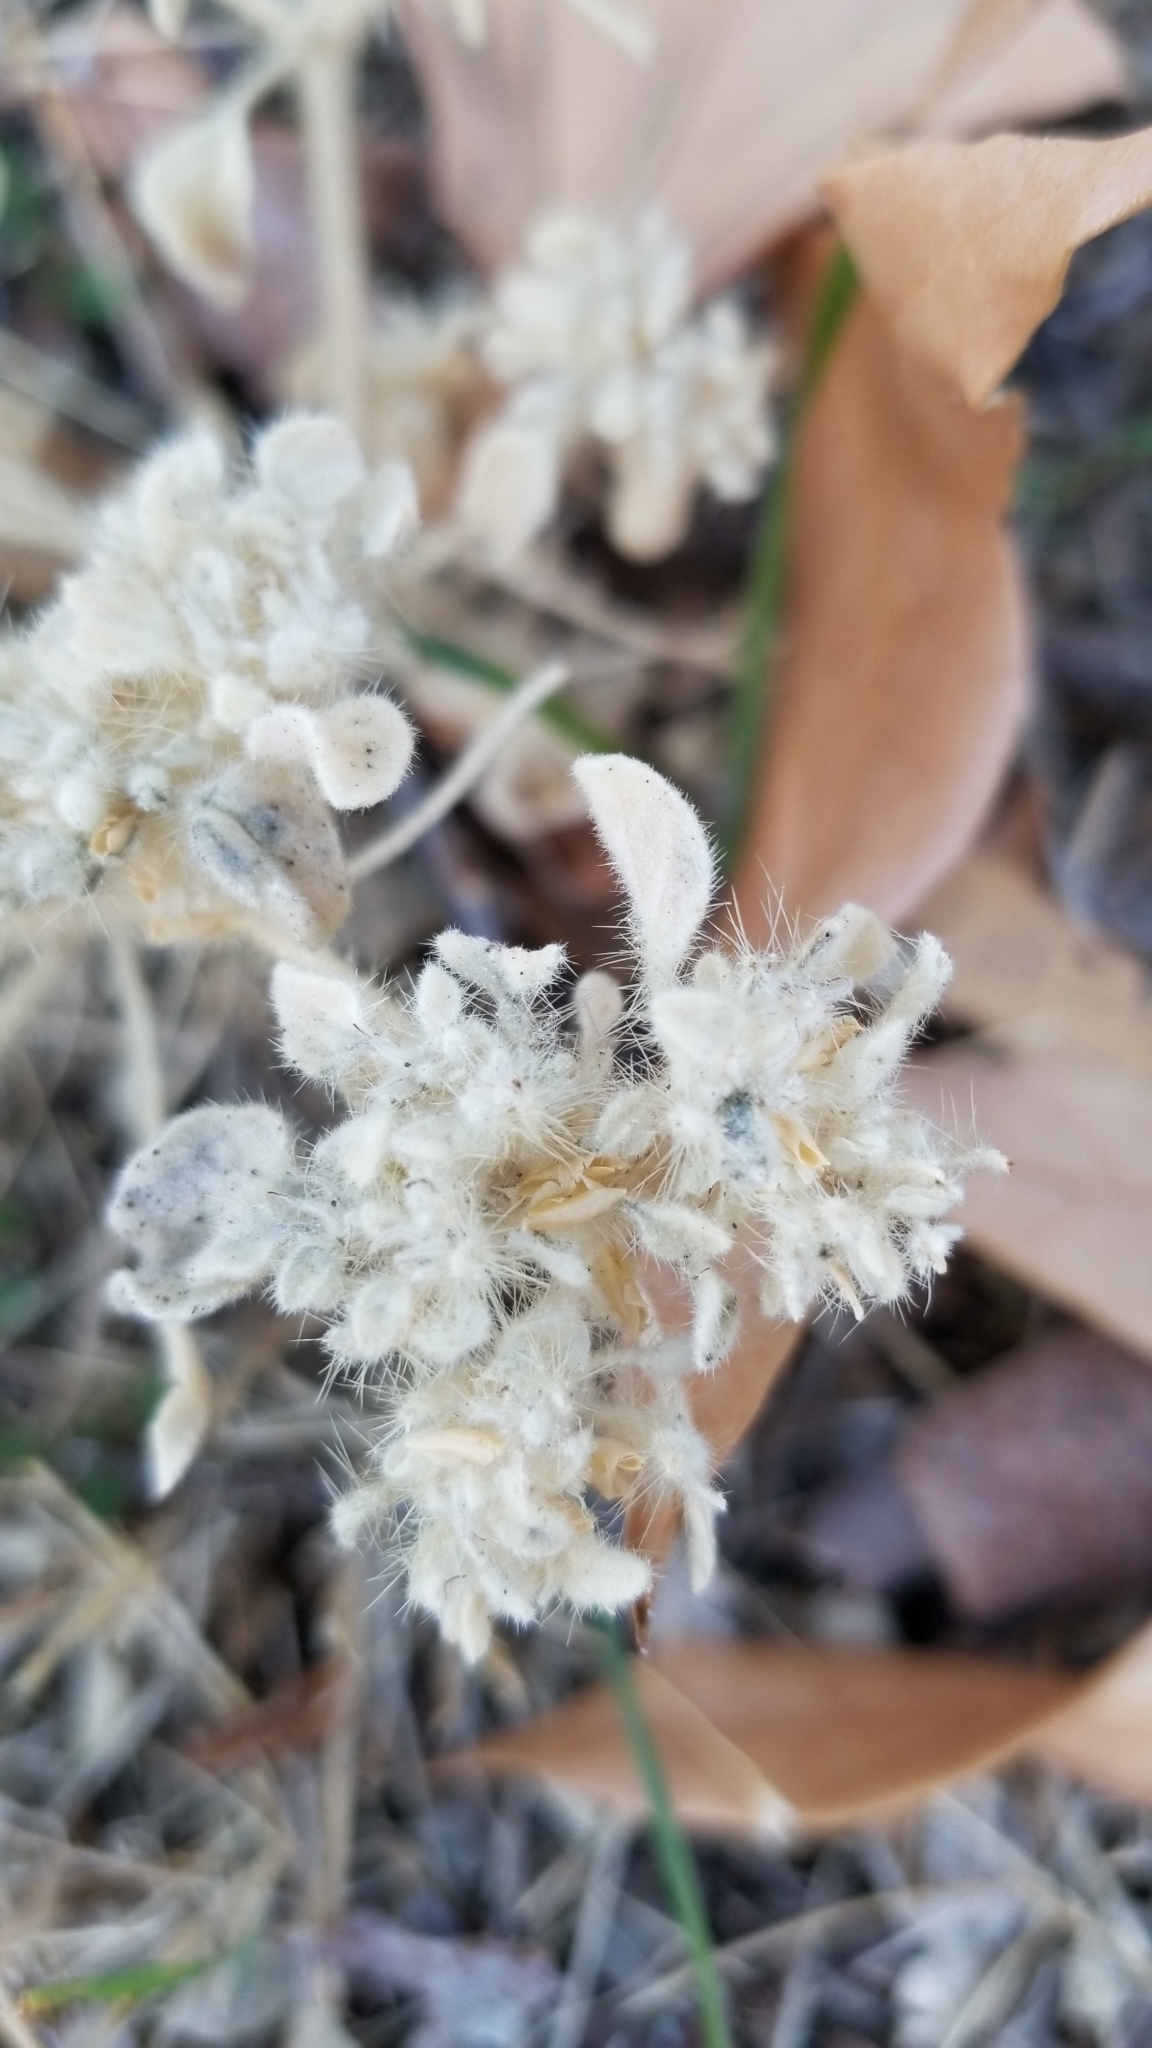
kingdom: Plantae
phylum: Tracheophyta
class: Magnoliopsida
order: Malpighiales
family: Euphorbiaceae
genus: Croton
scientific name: Croton setiger
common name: Dove weed
